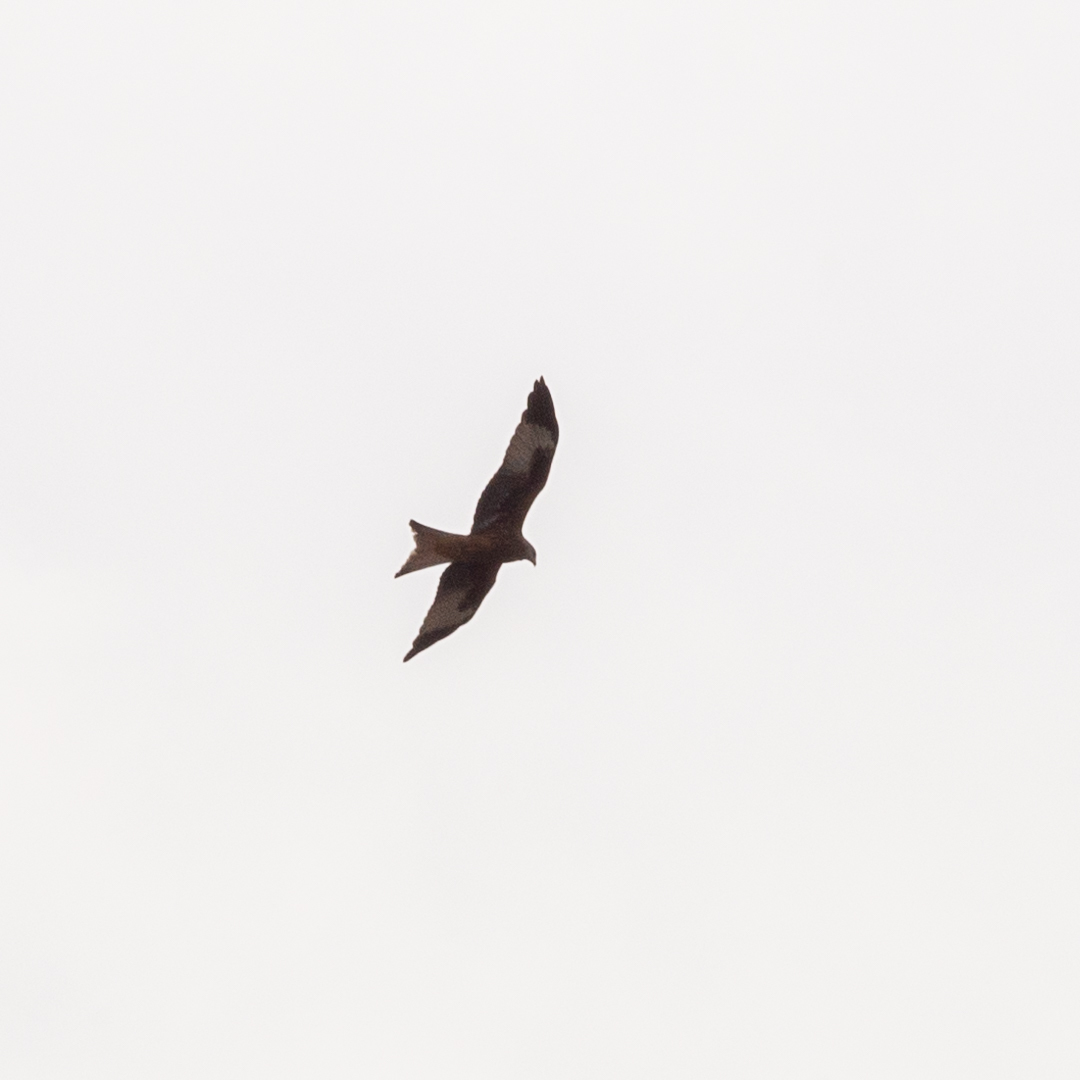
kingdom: Animalia
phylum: Chordata
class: Aves
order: Accipitriformes
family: Accipitridae
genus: Milvus
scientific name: Milvus milvus
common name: Red kite
